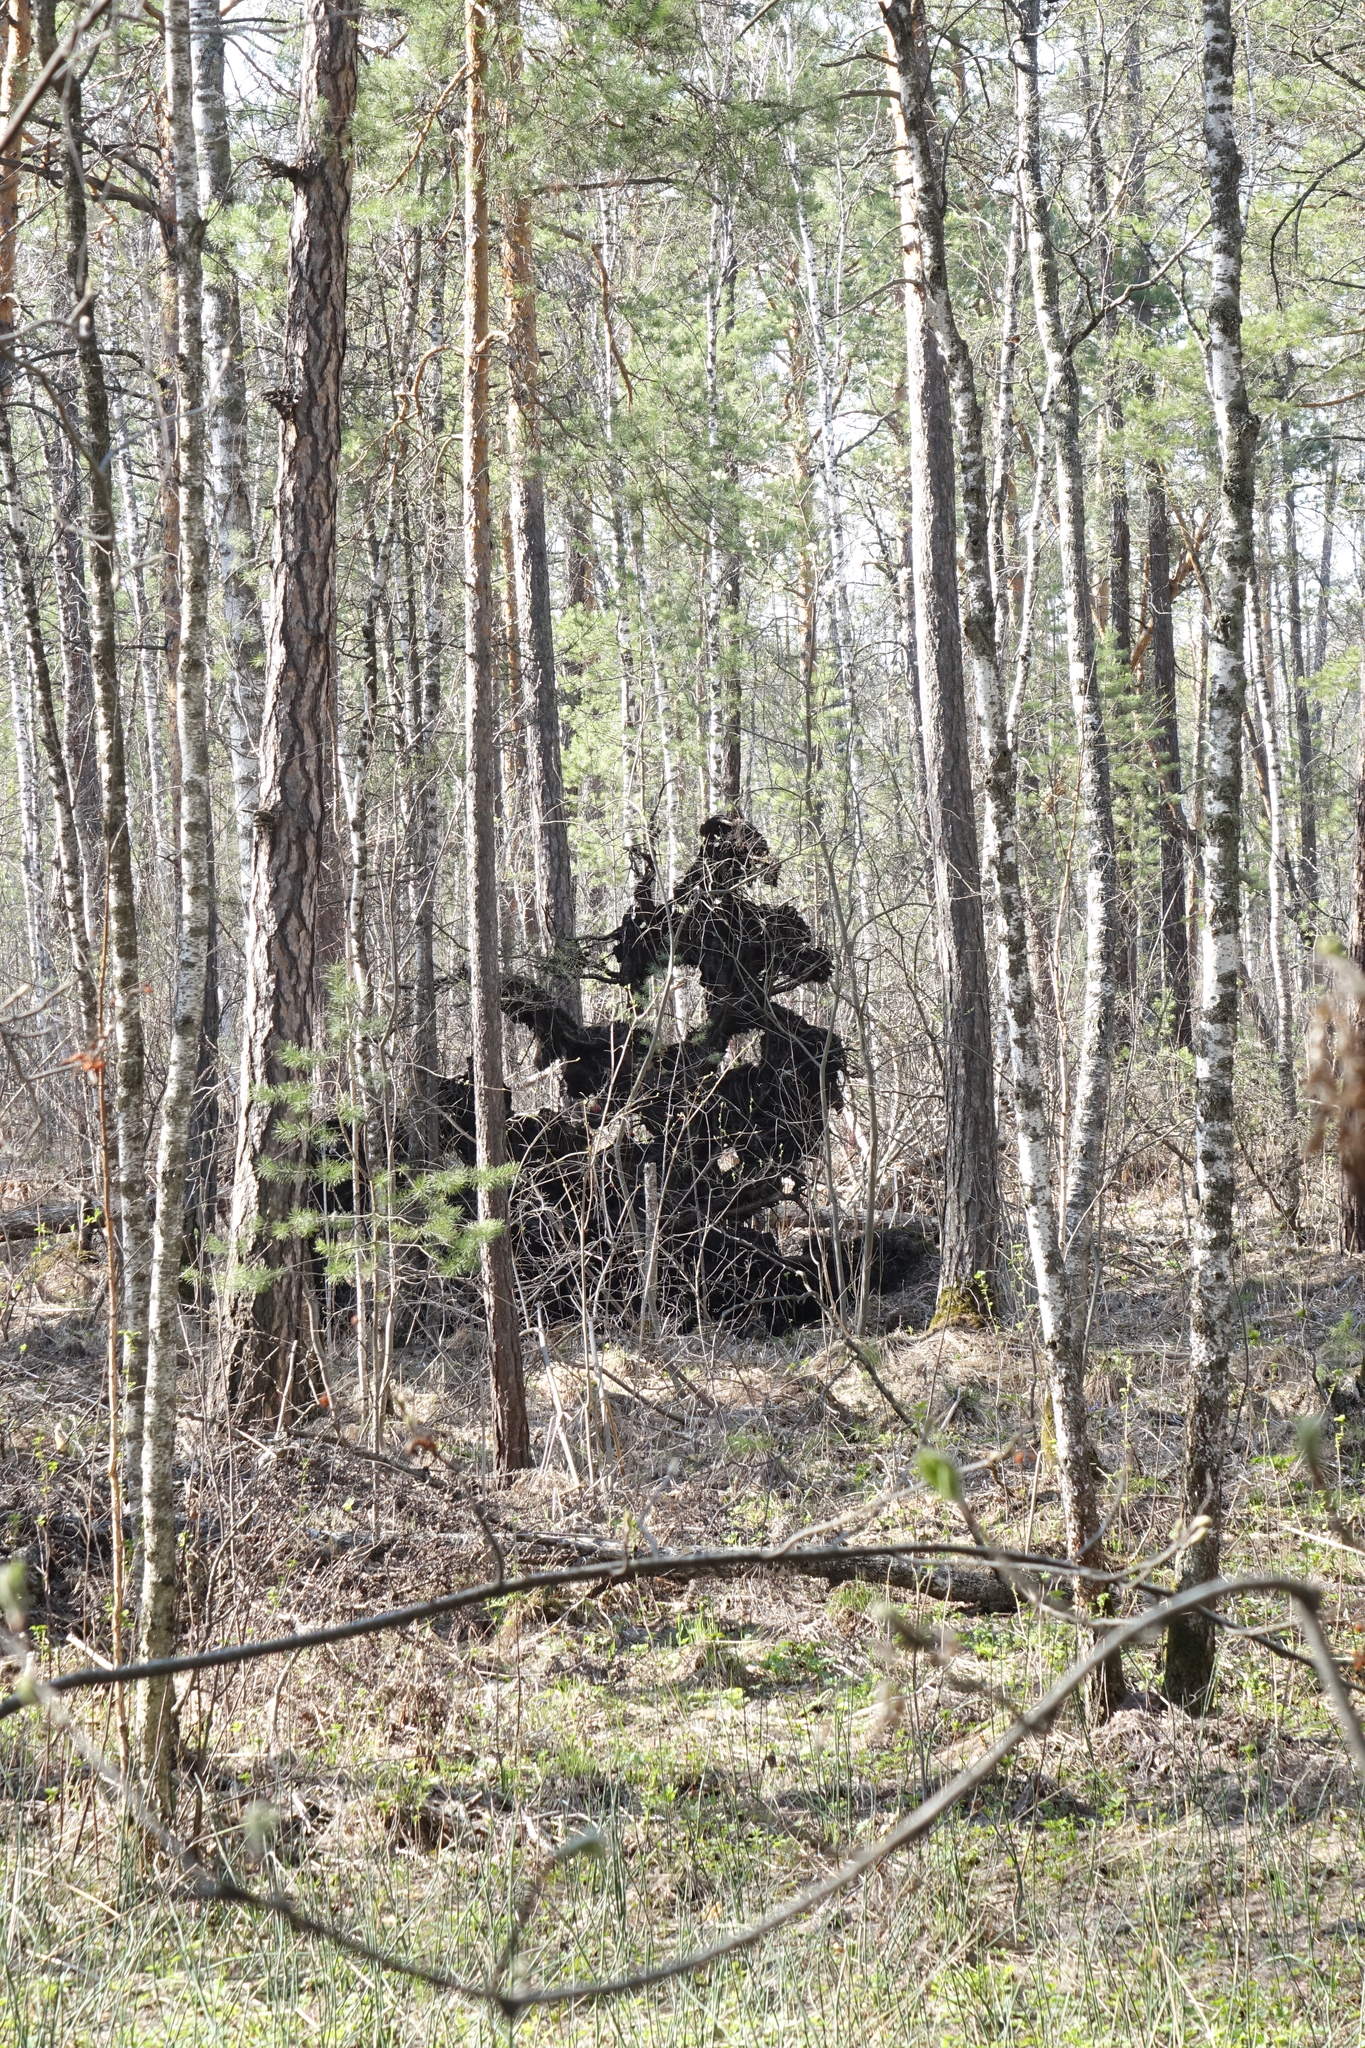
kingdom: Plantae
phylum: Tracheophyta
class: Pinopsida
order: Pinales
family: Pinaceae
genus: Pinus
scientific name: Pinus sylvestris
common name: Scots pine
